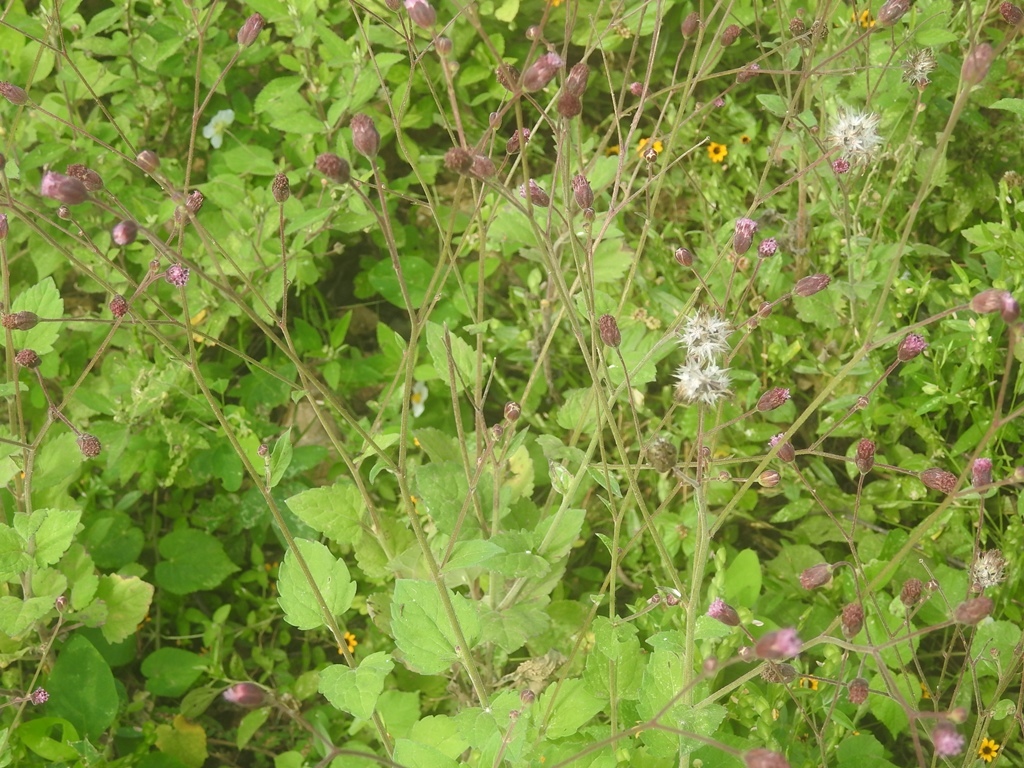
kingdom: Plantae
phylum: Tracheophyta
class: Magnoliopsida
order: Asterales
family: Asteraceae
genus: Florestina
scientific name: Florestina latifolia
